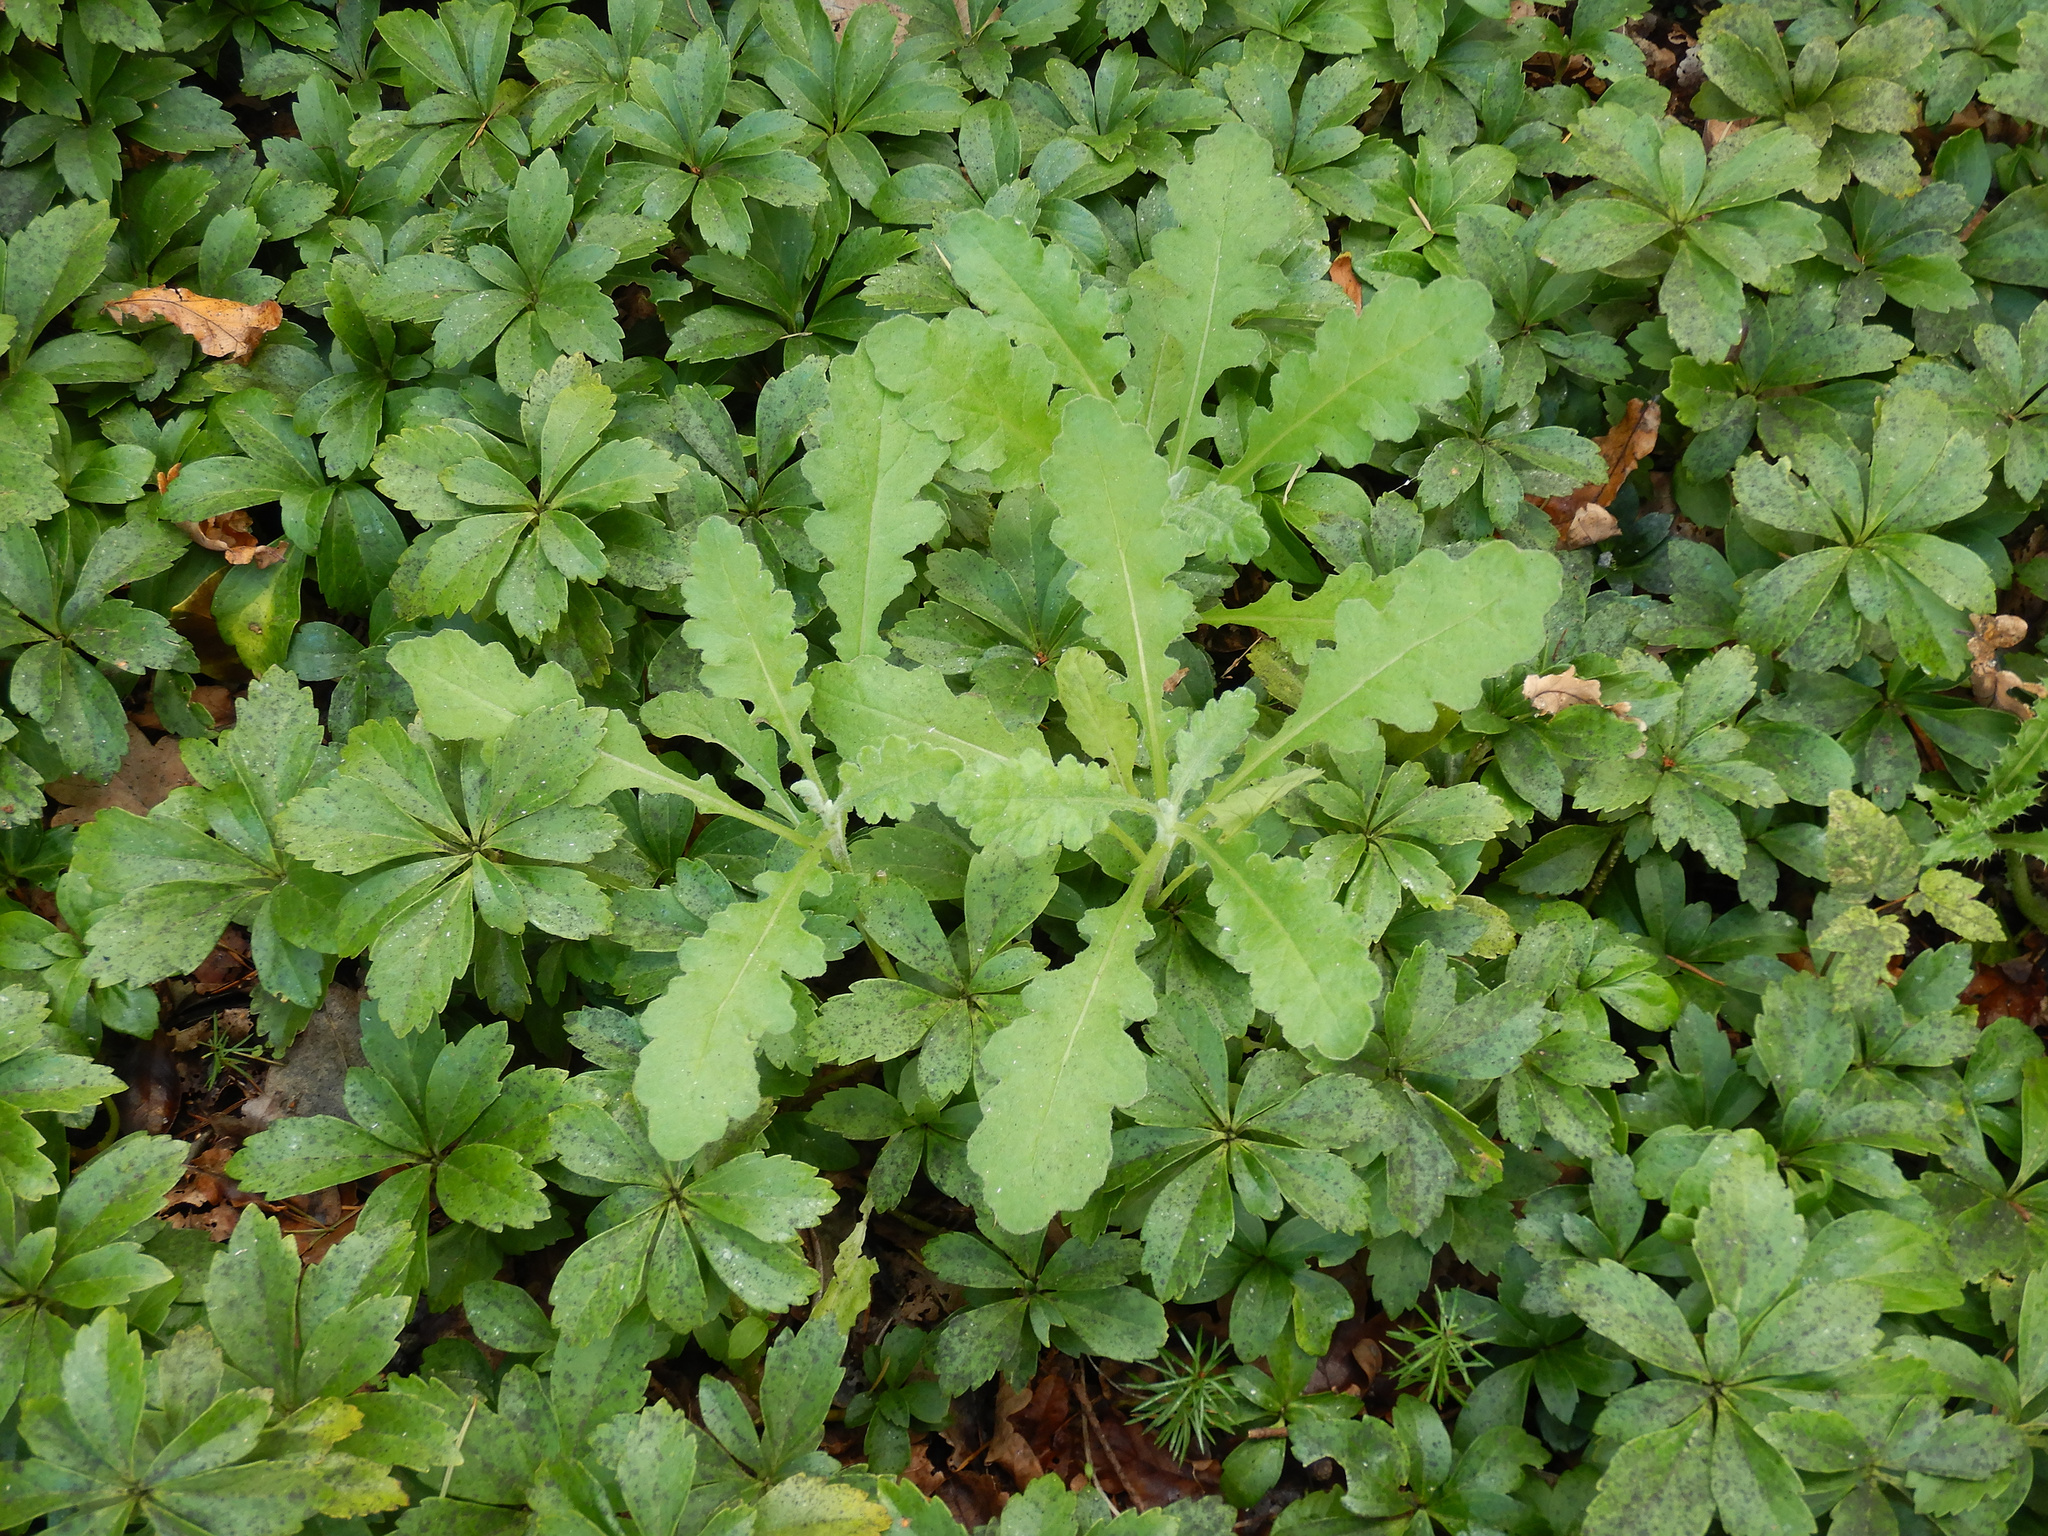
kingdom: Plantae
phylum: Tracheophyta
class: Magnoliopsida
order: Asterales
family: Asteraceae
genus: Senecio
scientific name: Senecio glomeratus
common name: Cutleaf burnweed
